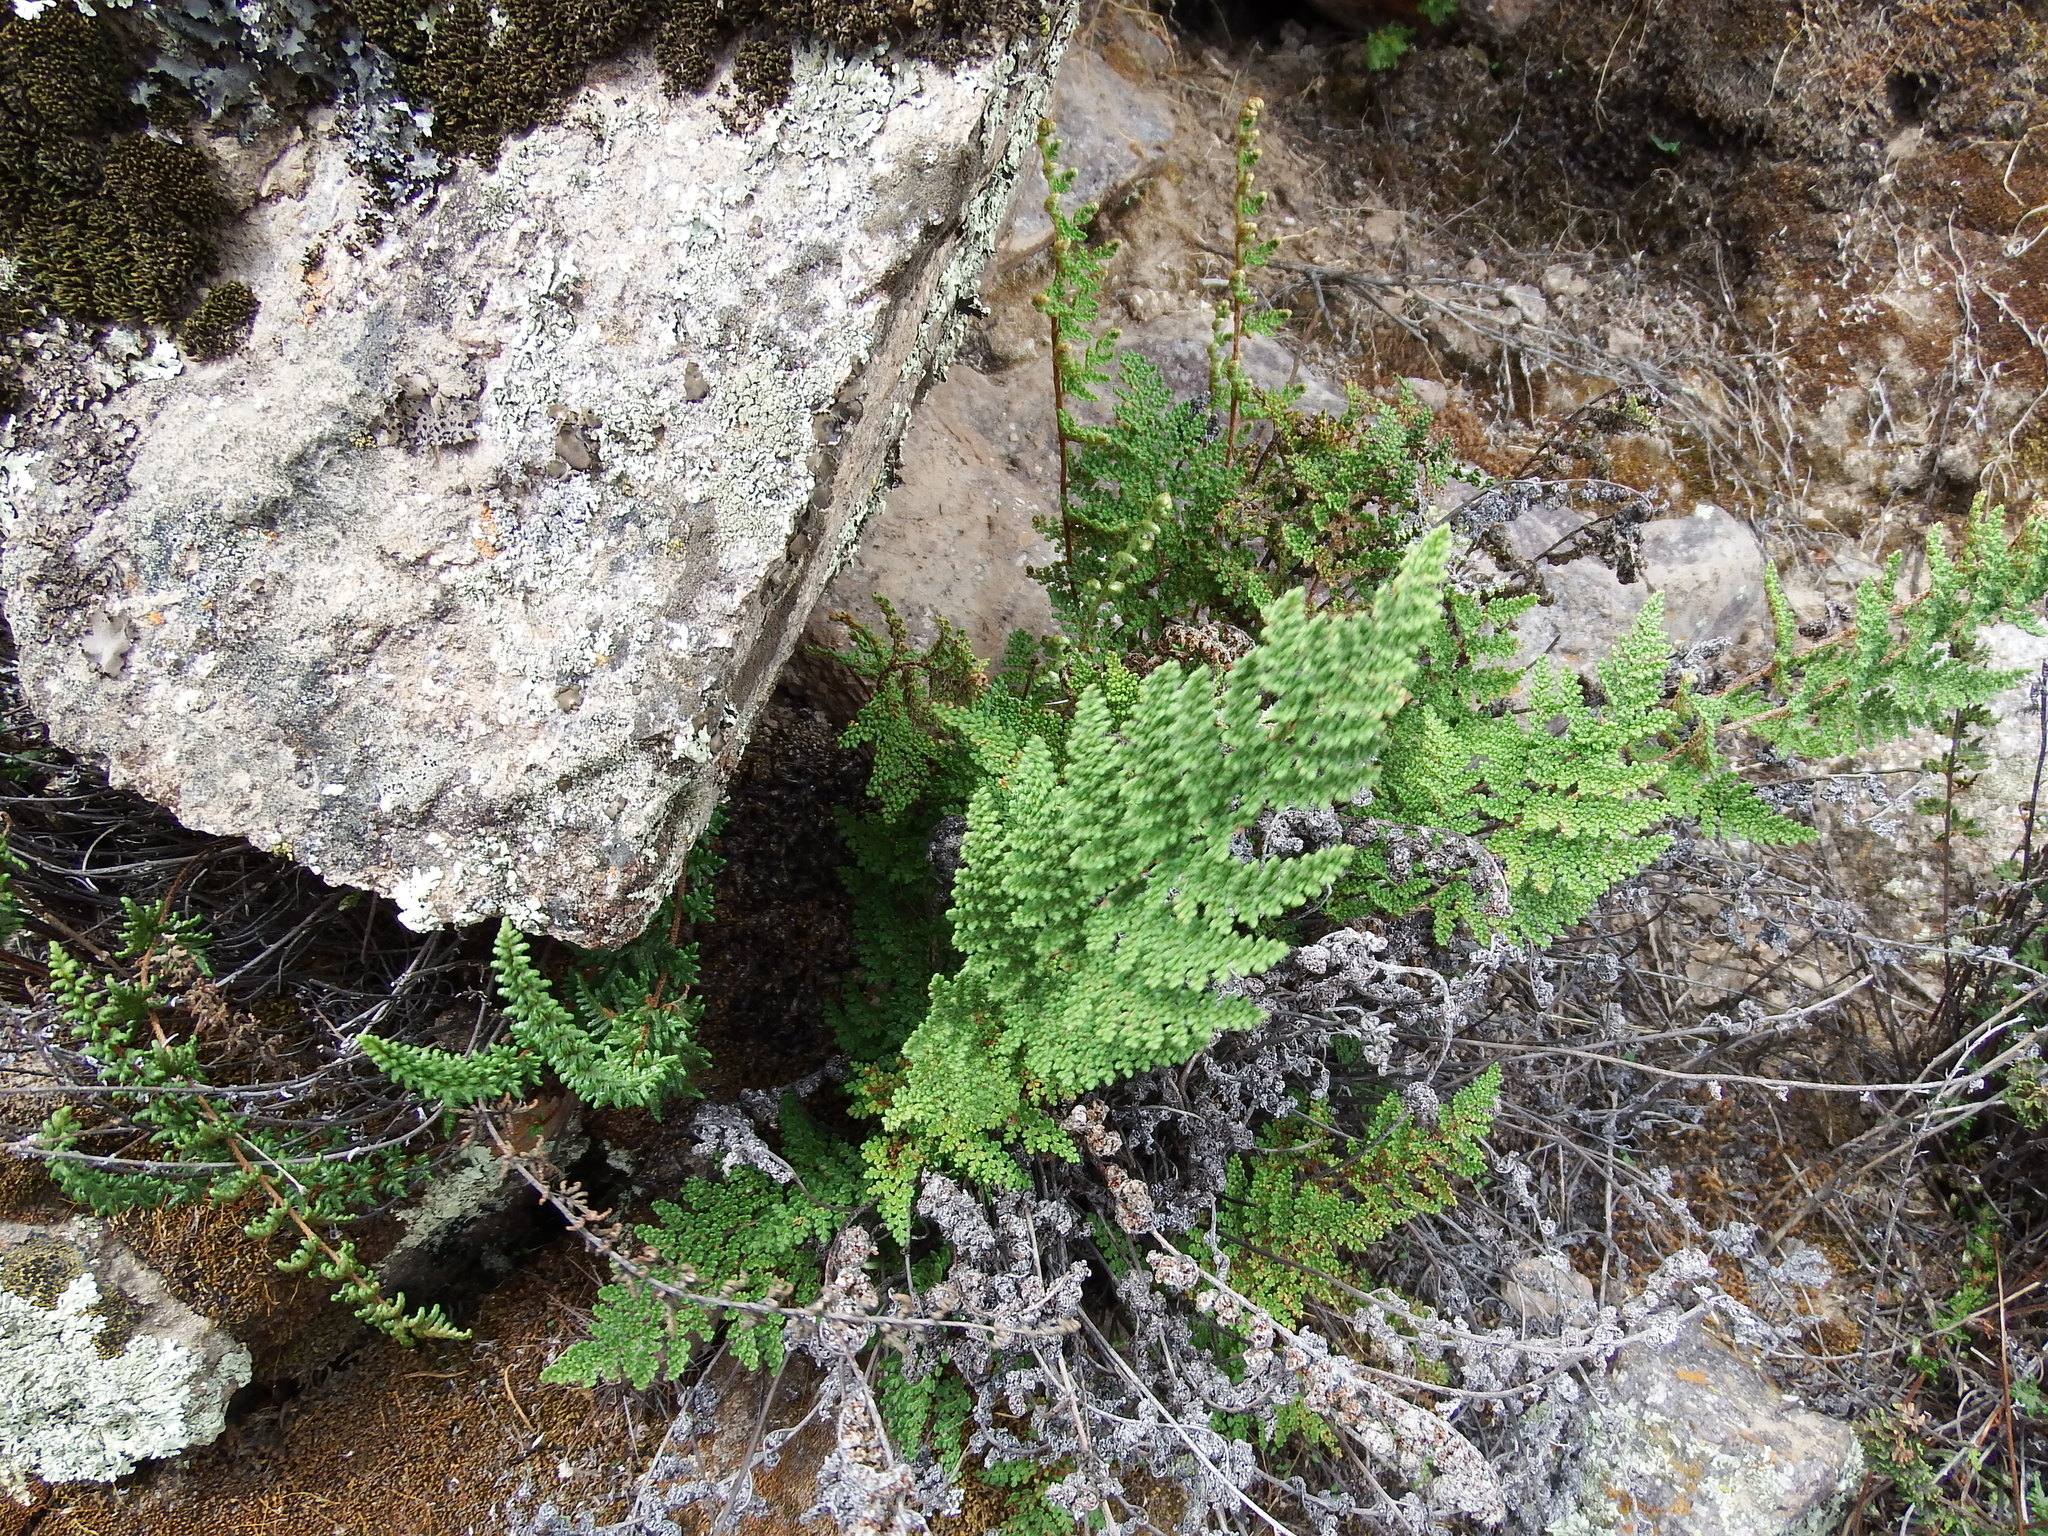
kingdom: Plantae
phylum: Tracheophyta
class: Polypodiopsida
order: Polypodiales
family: Pteridaceae
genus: Myriopteris
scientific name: Myriopteris myriophylla
